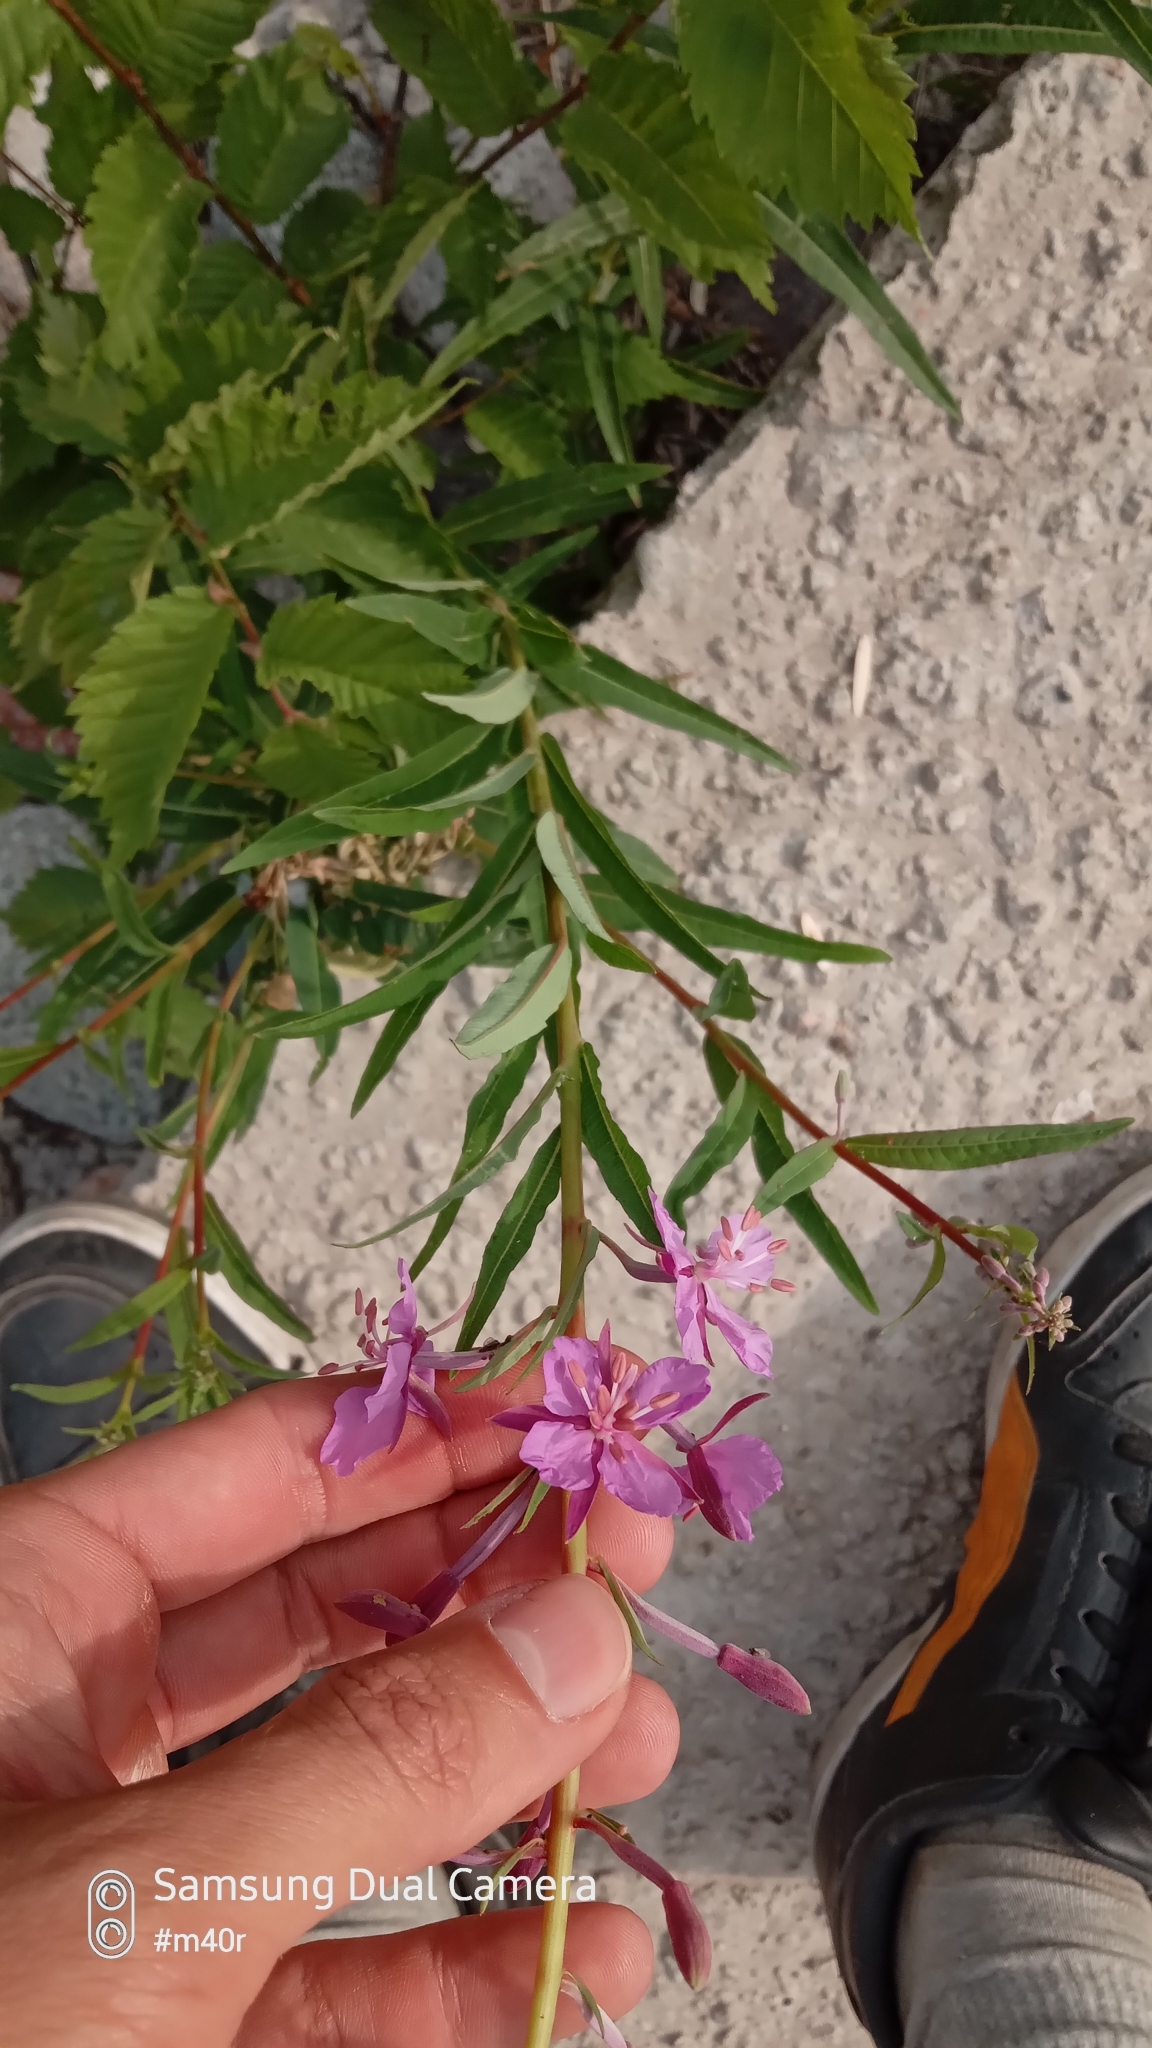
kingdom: Plantae
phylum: Tracheophyta
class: Magnoliopsida
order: Myrtales
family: Onagraceae
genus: Chamaenerion
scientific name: Chamaenerion angustifolium
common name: Fireweed
